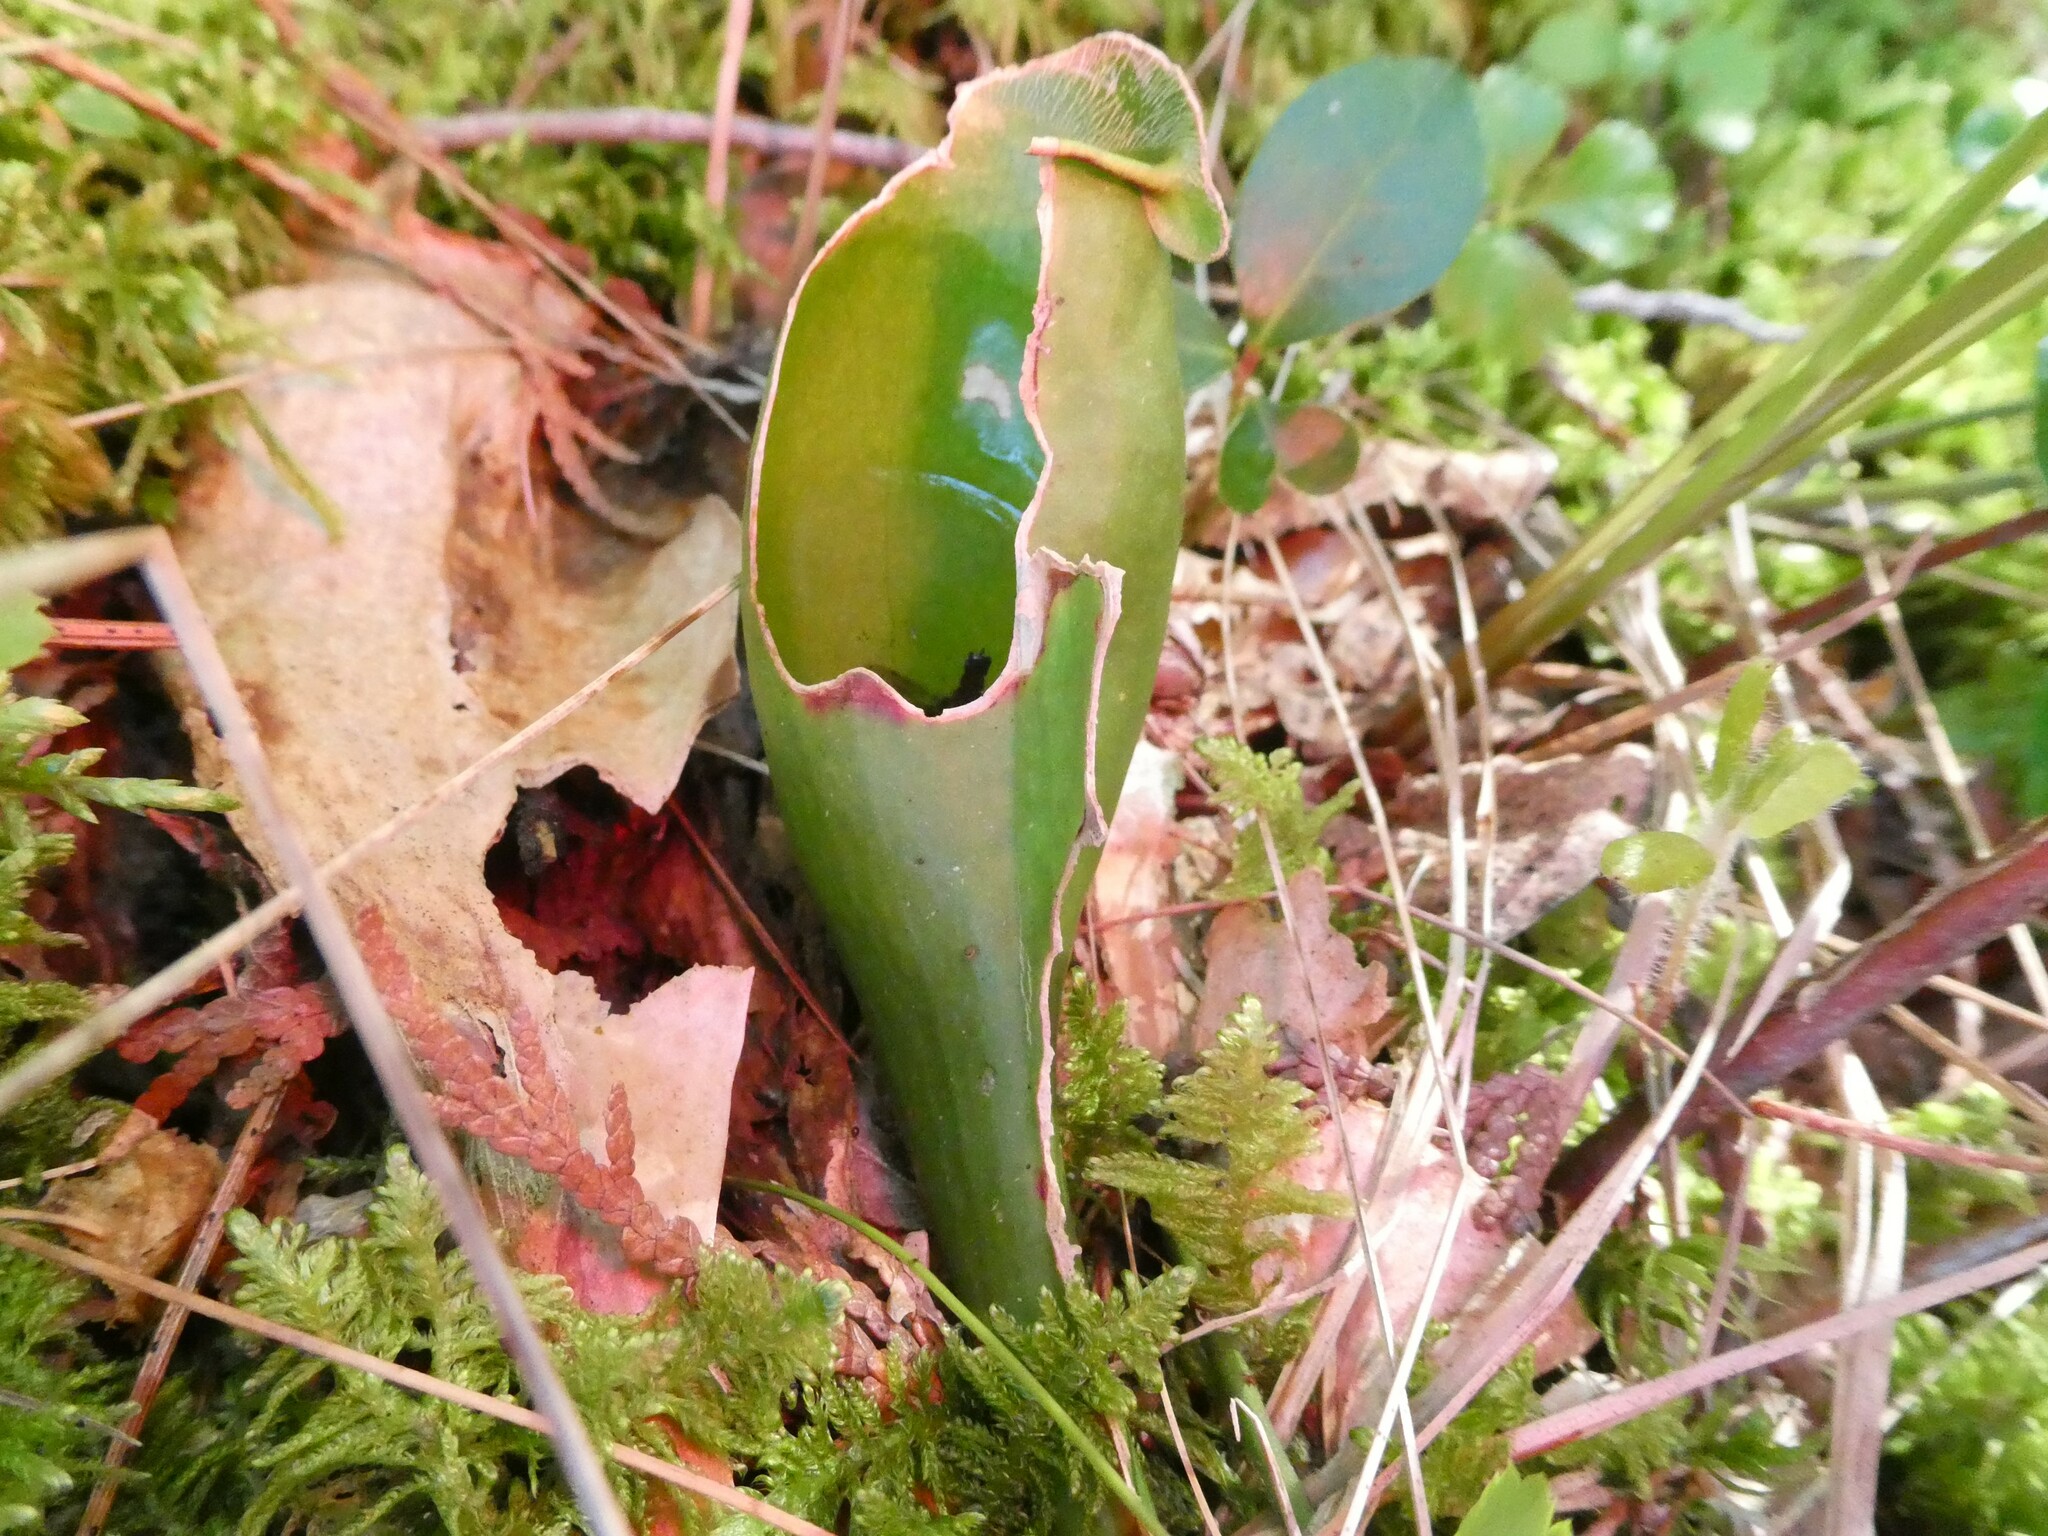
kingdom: Plantae
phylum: Tracheophyta
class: Magnoliopsida
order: Ericales
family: Sarraceniaceae
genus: Sarracenia
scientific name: Sarracenia purpurea
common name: Pitcherplant
